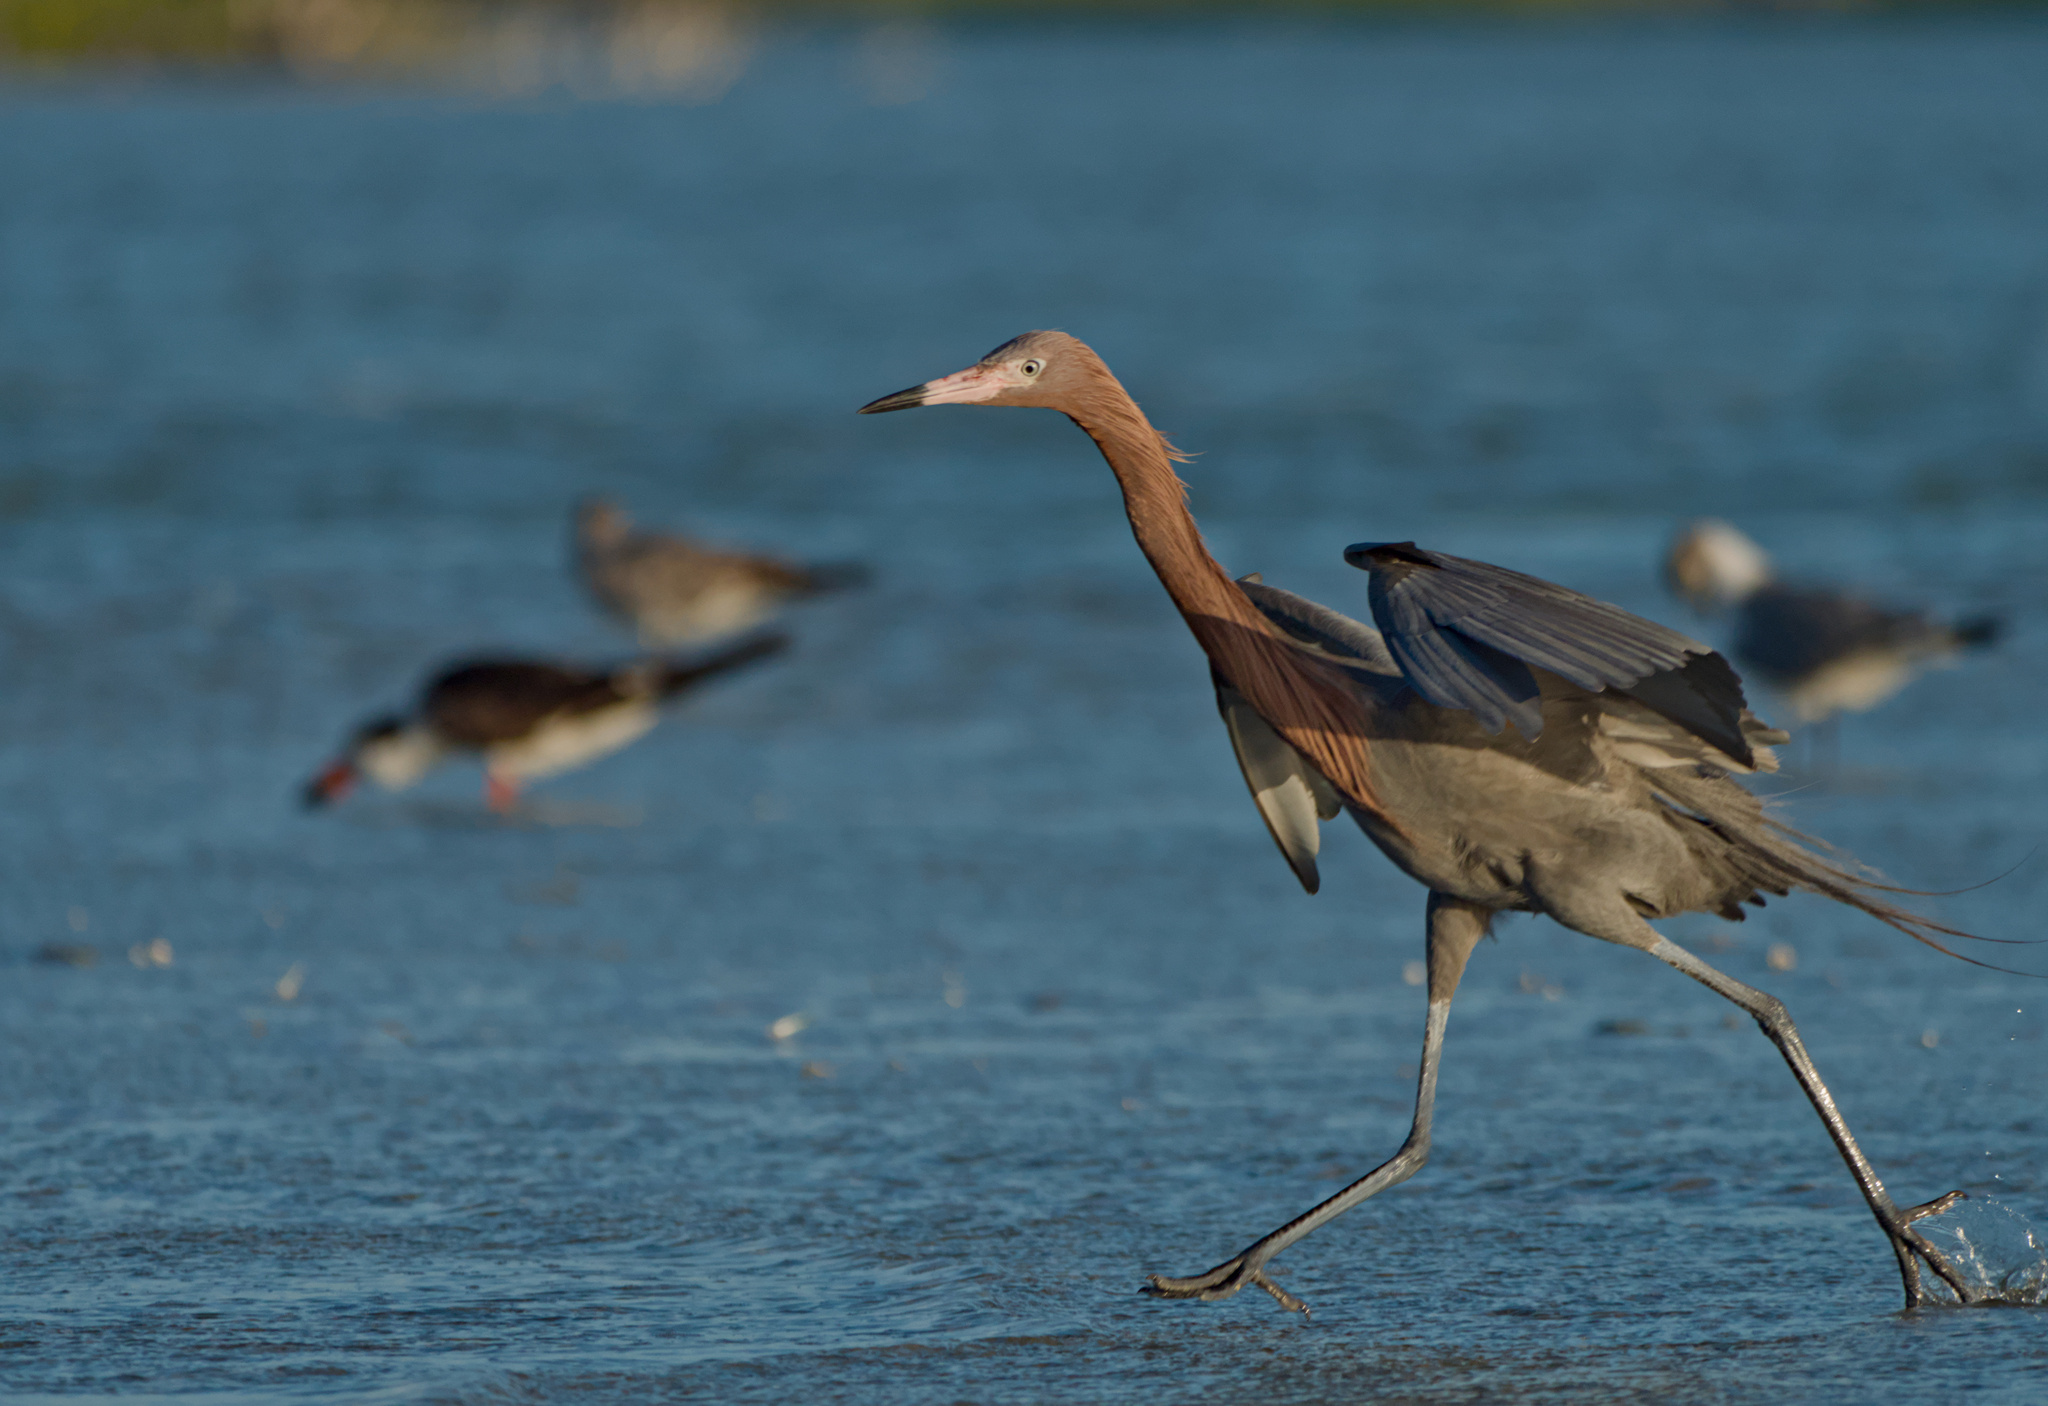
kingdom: Animalia
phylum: Chordata
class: Aves
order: Pelecaniformes
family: Ardeidae
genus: Egretta
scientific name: Egretta rufescens
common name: Reddish egret
